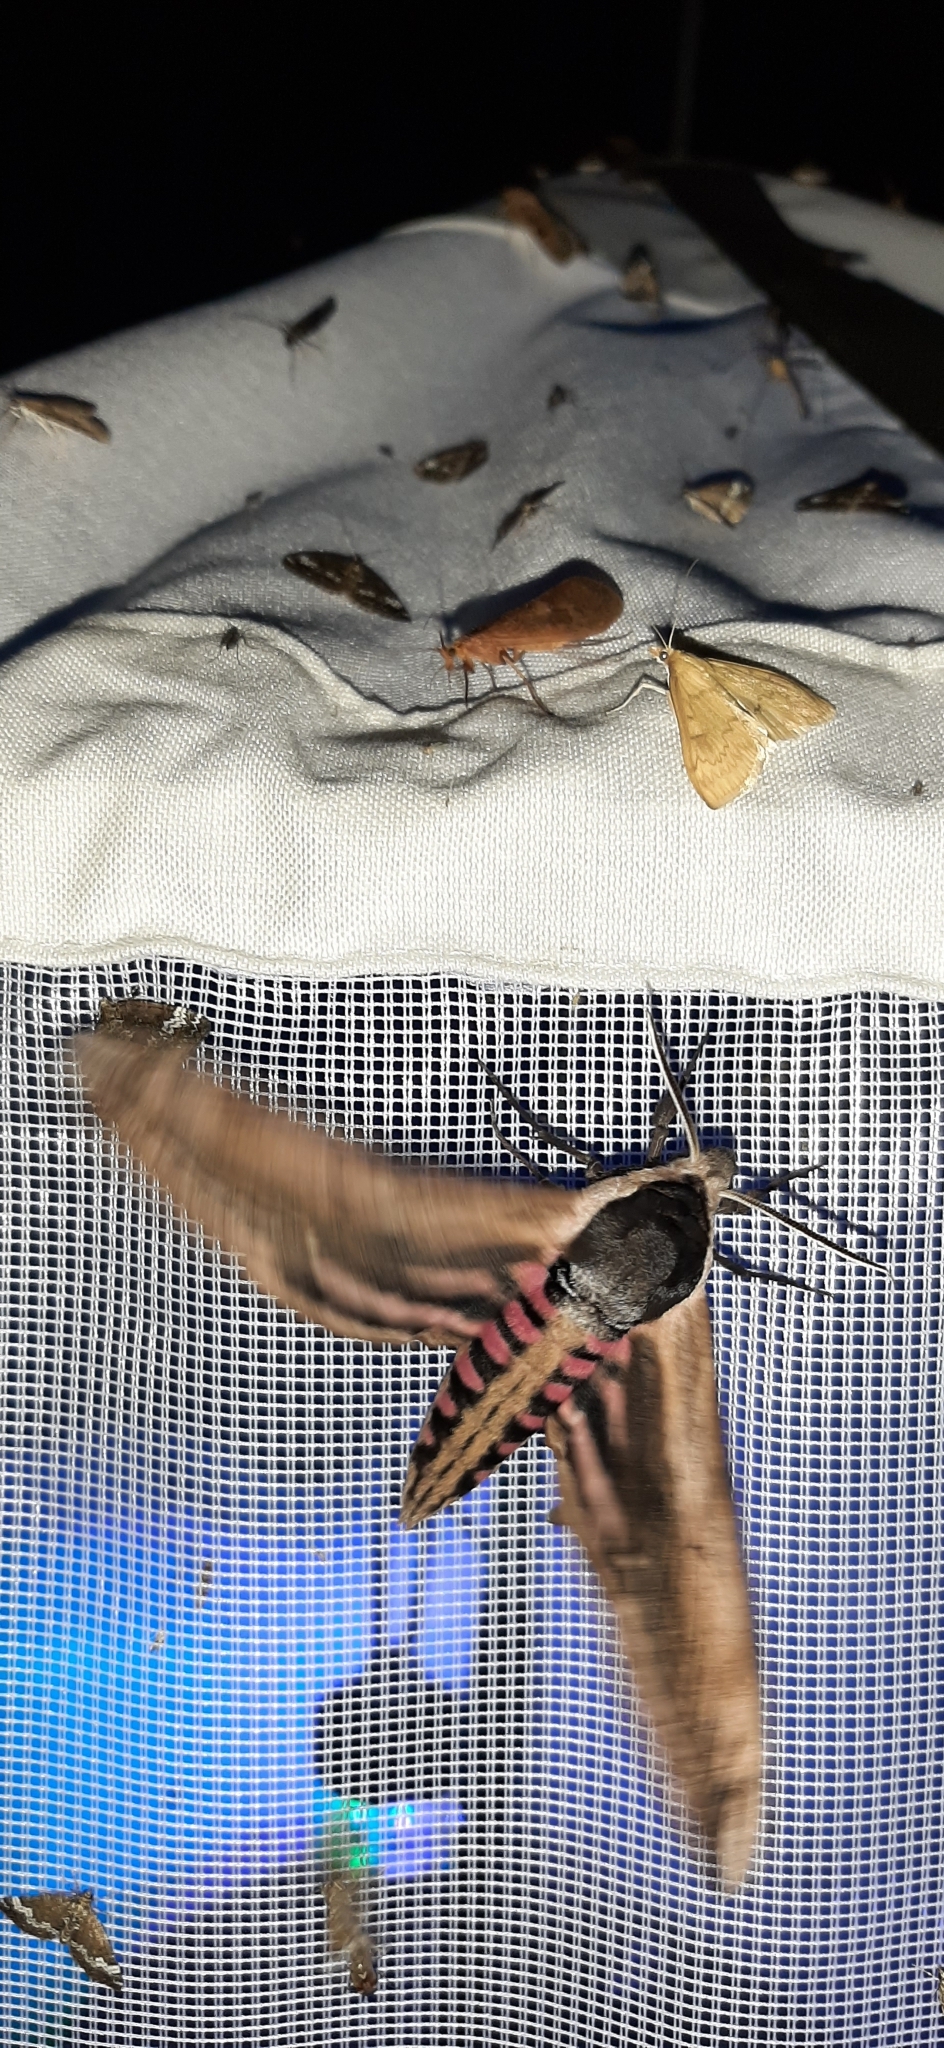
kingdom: Animalia
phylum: Arthropoda
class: Insecta
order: Lepidoptera
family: Sphingidae
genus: Sphinx
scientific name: Sphinx ligustri
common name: Privet hawk-moth
